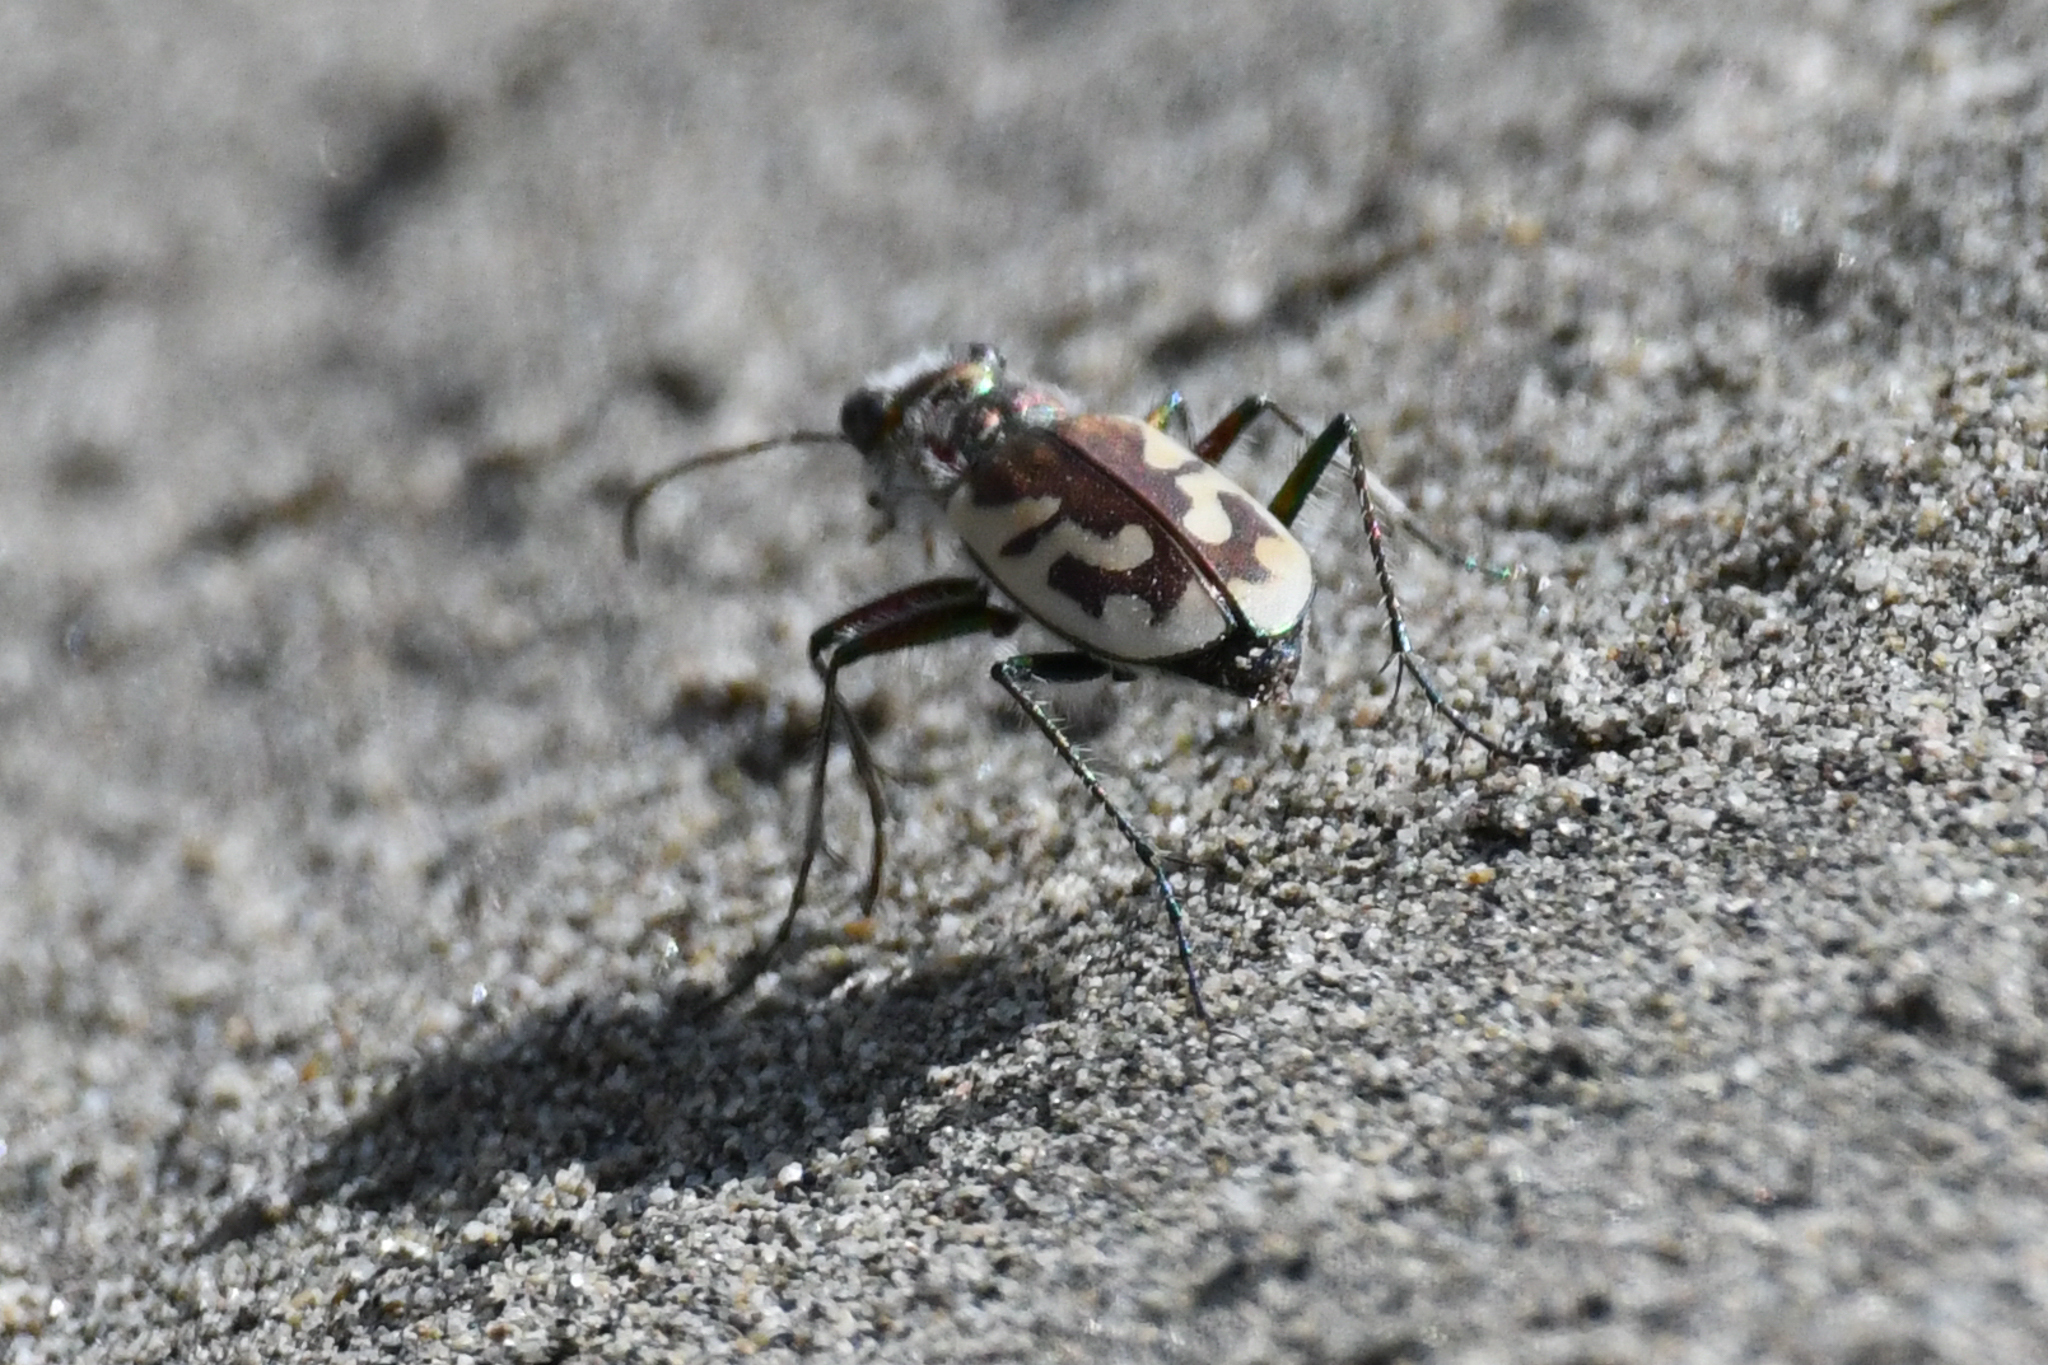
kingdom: Animalia
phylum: Arthropoda
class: Insecta
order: Coleoptera
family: Carabidae
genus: Cicindela
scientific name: Cicindela lengi
